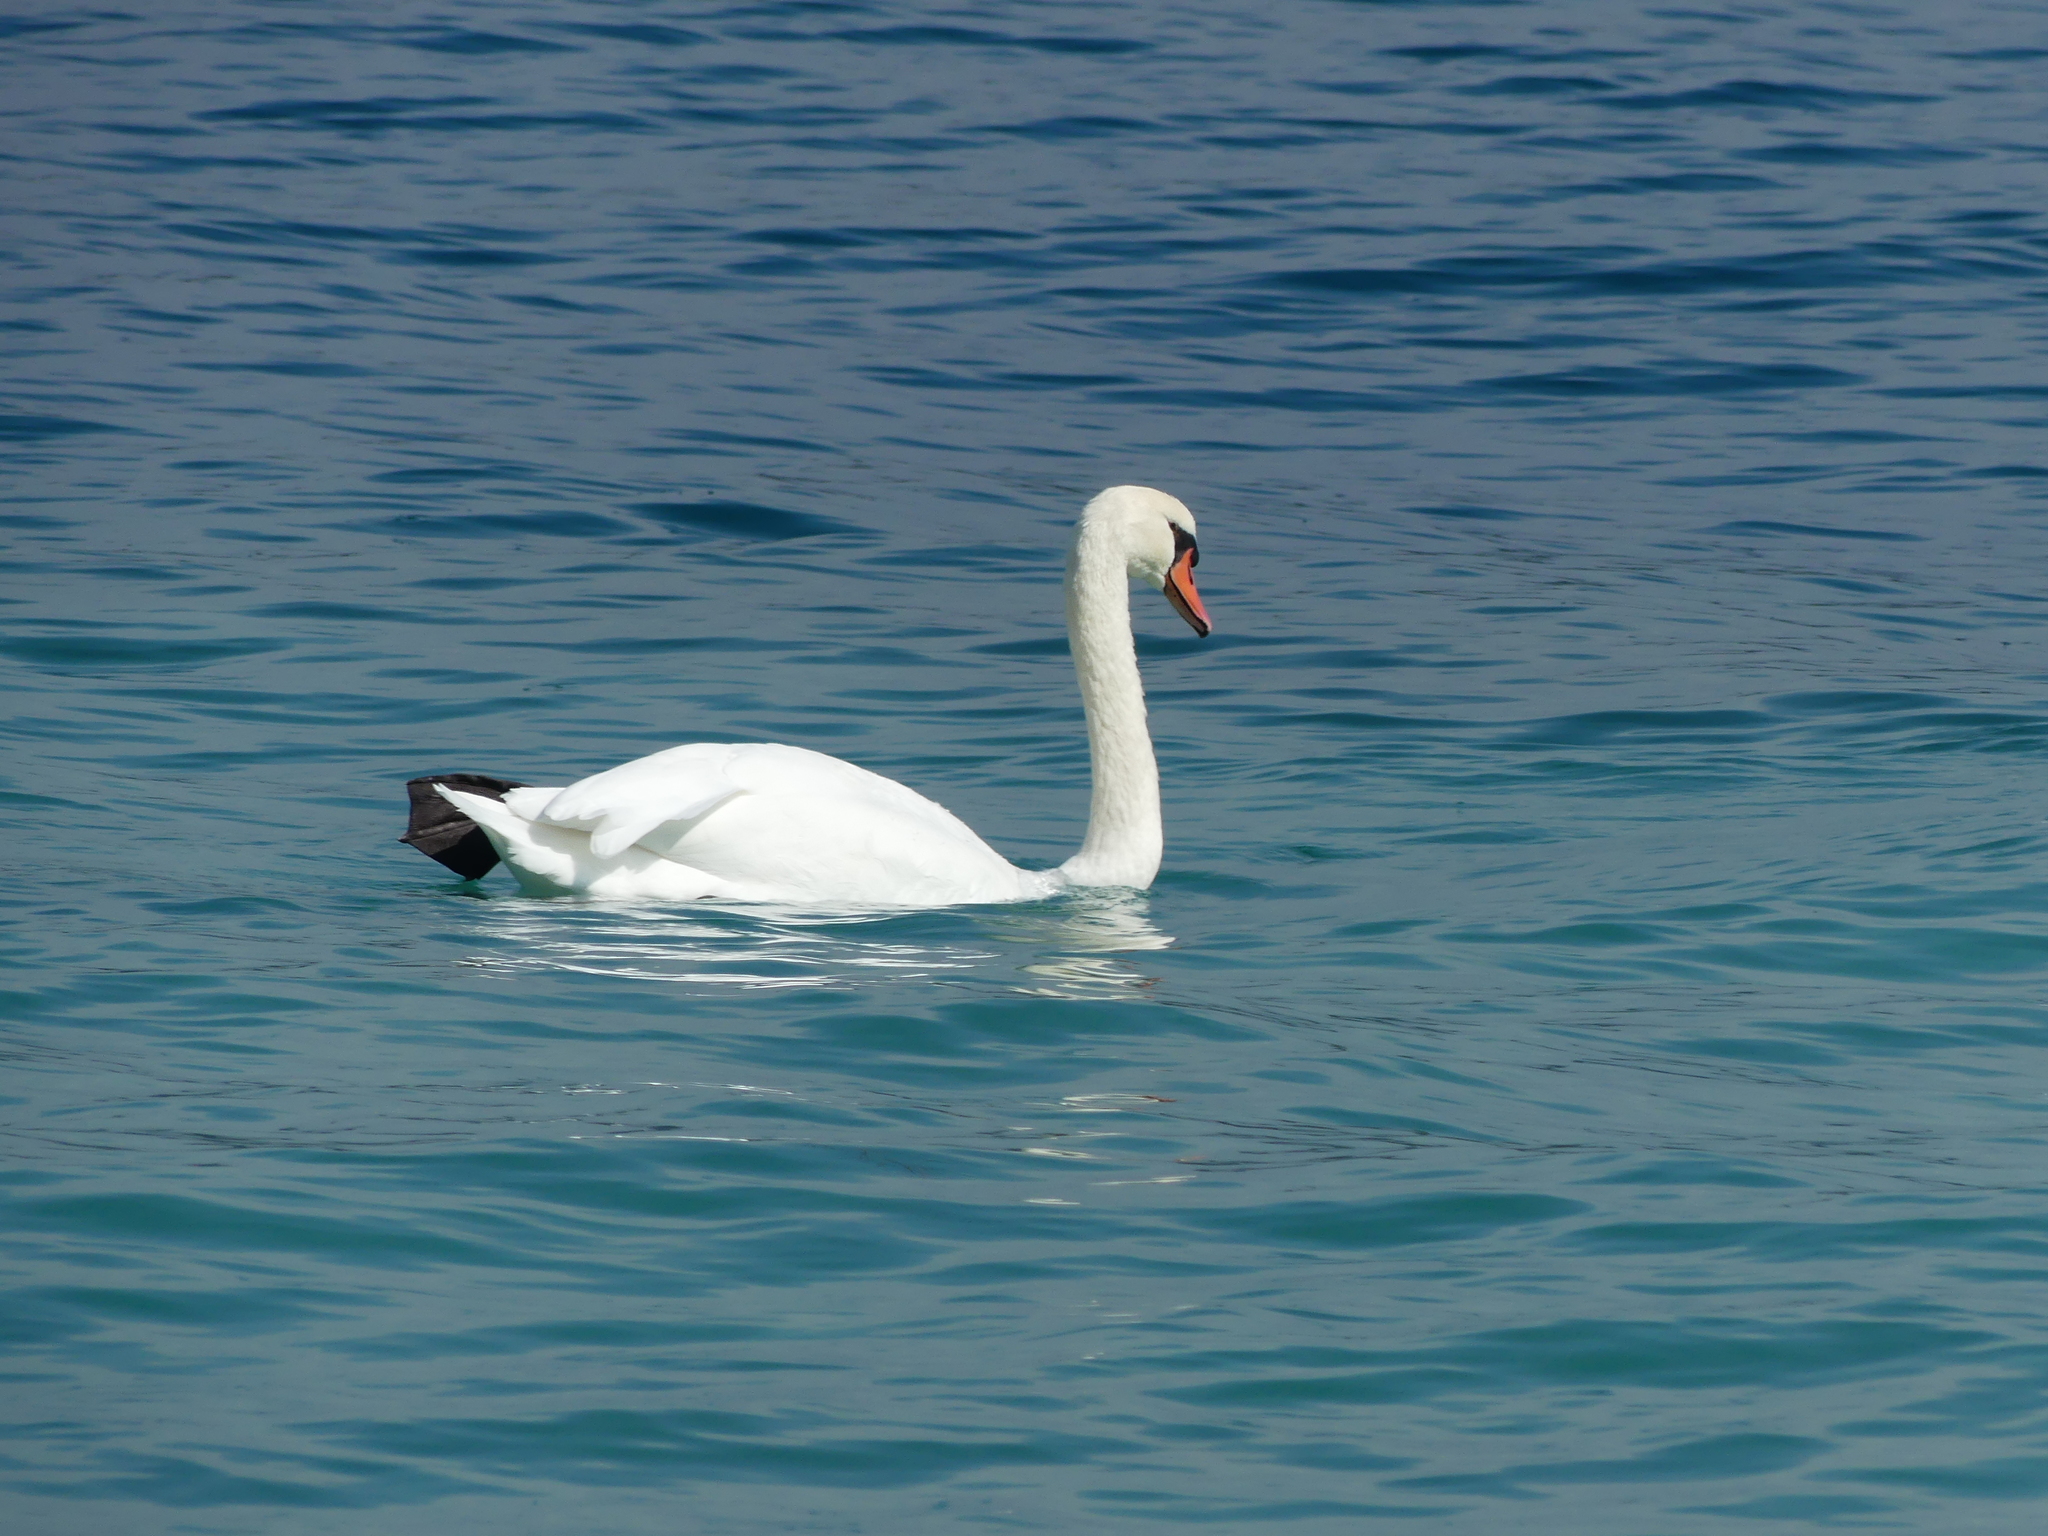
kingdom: Animalia
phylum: Chordata
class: Aves
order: Anseriformes
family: Anatidae
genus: Cygnus
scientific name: Cygnus olor
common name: Mute swan
